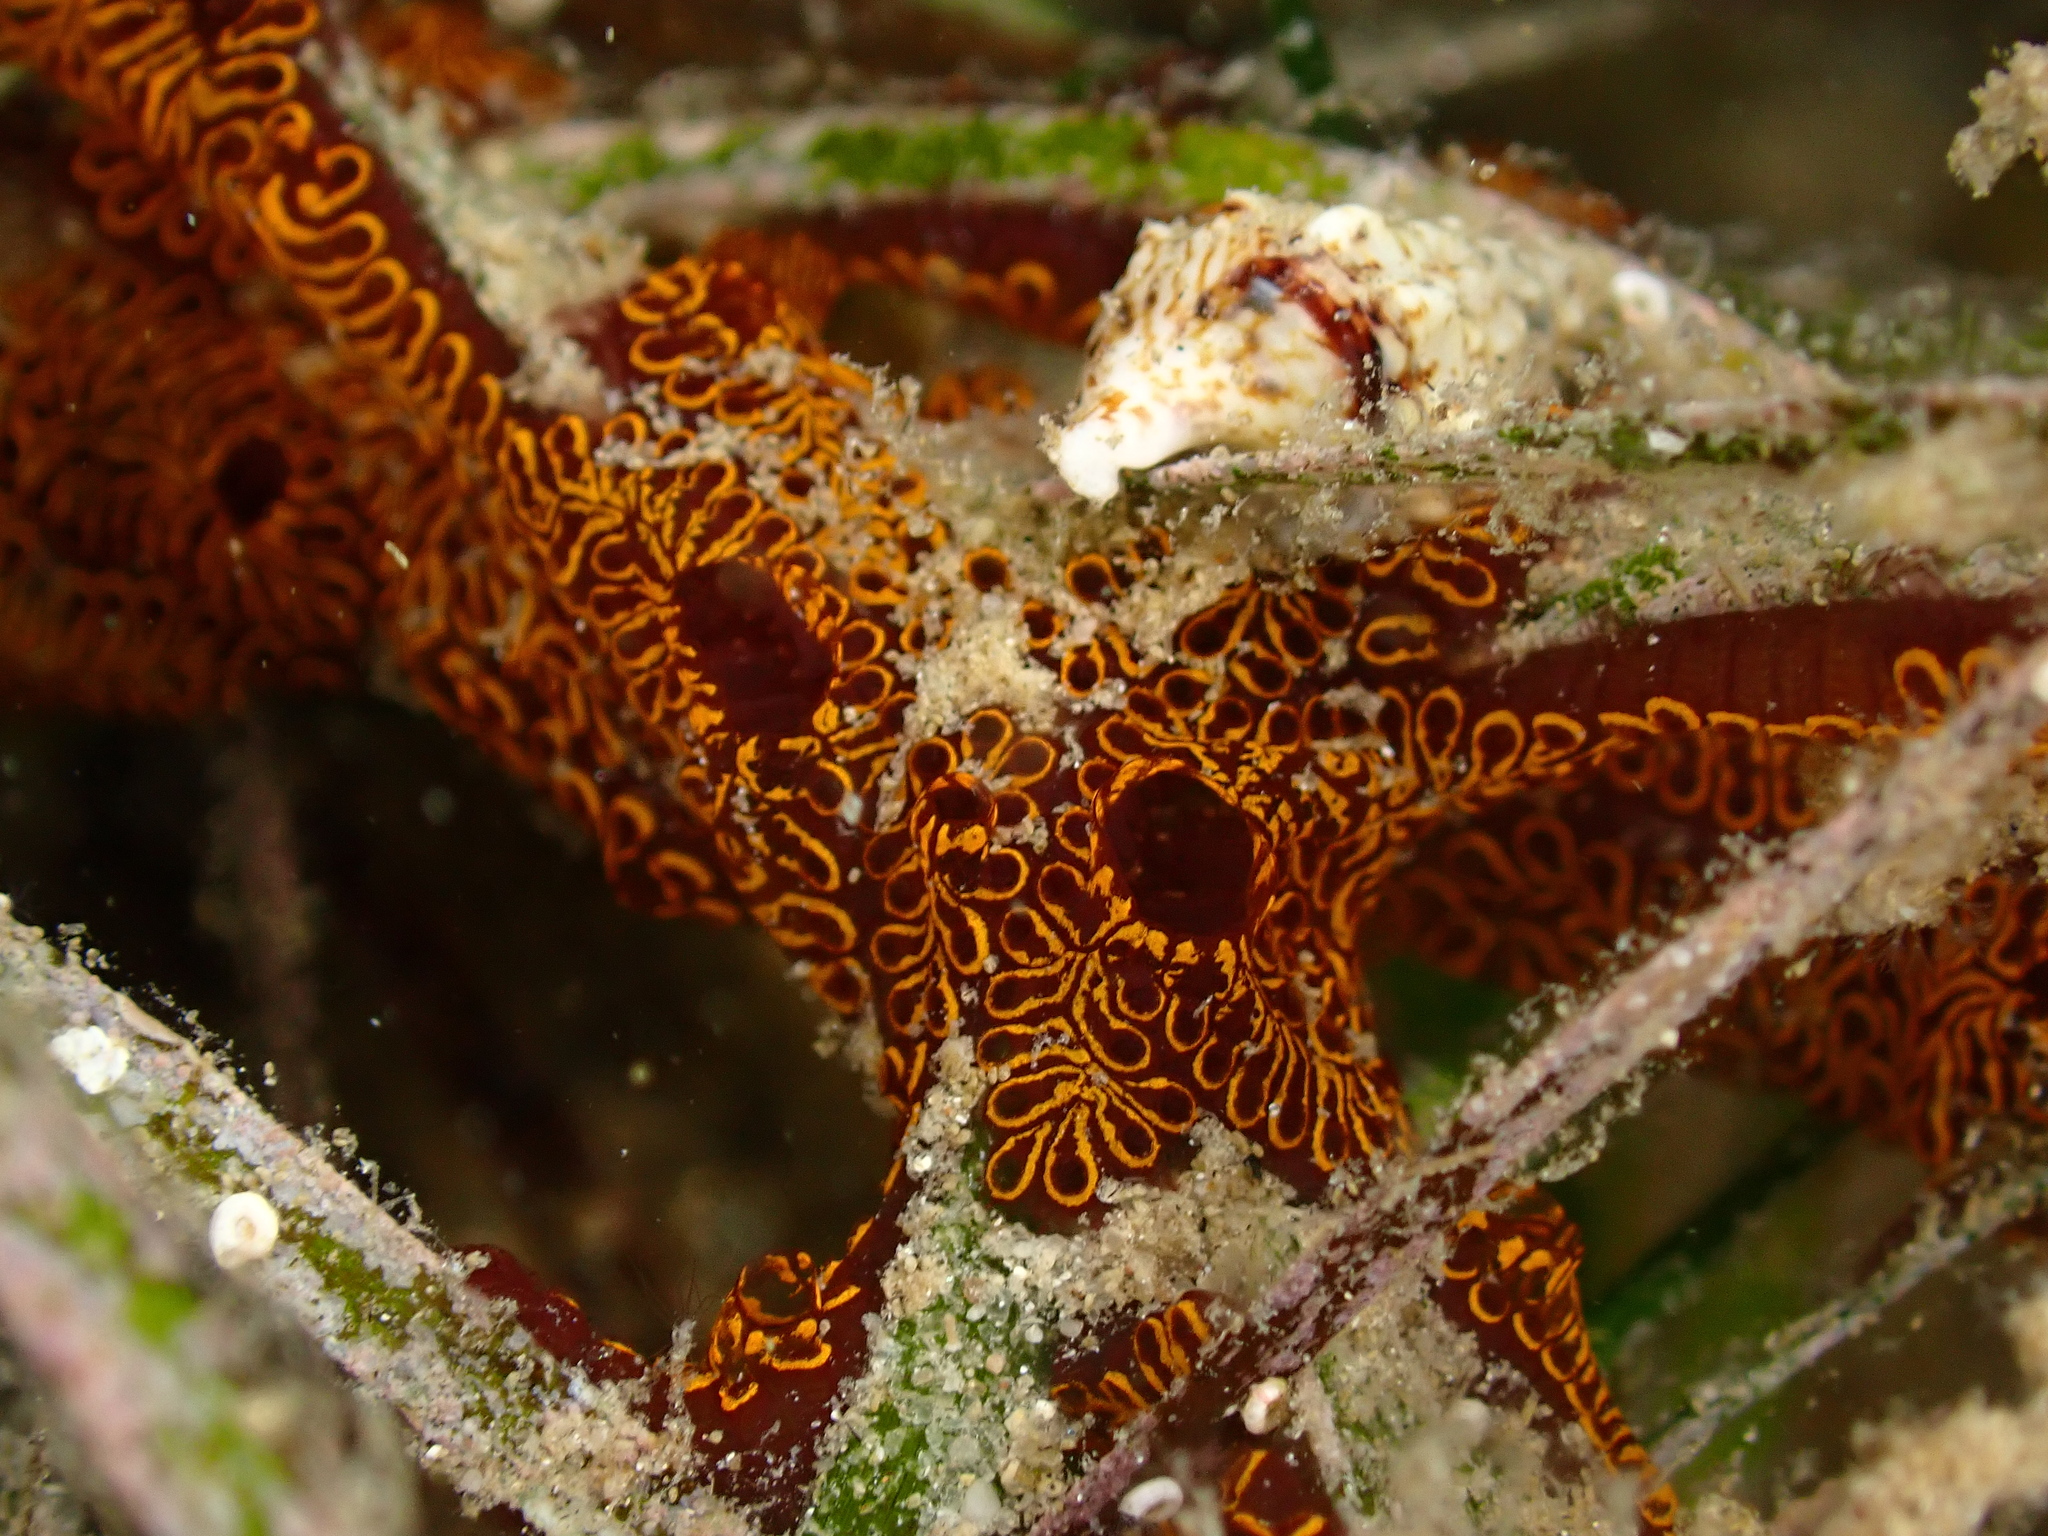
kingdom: Animalia
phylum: Chordata
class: Ascidiacea
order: Stolidobranchia
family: Styelidae
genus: Botrylloides
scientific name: Botrylloides niger
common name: Black synascidia
